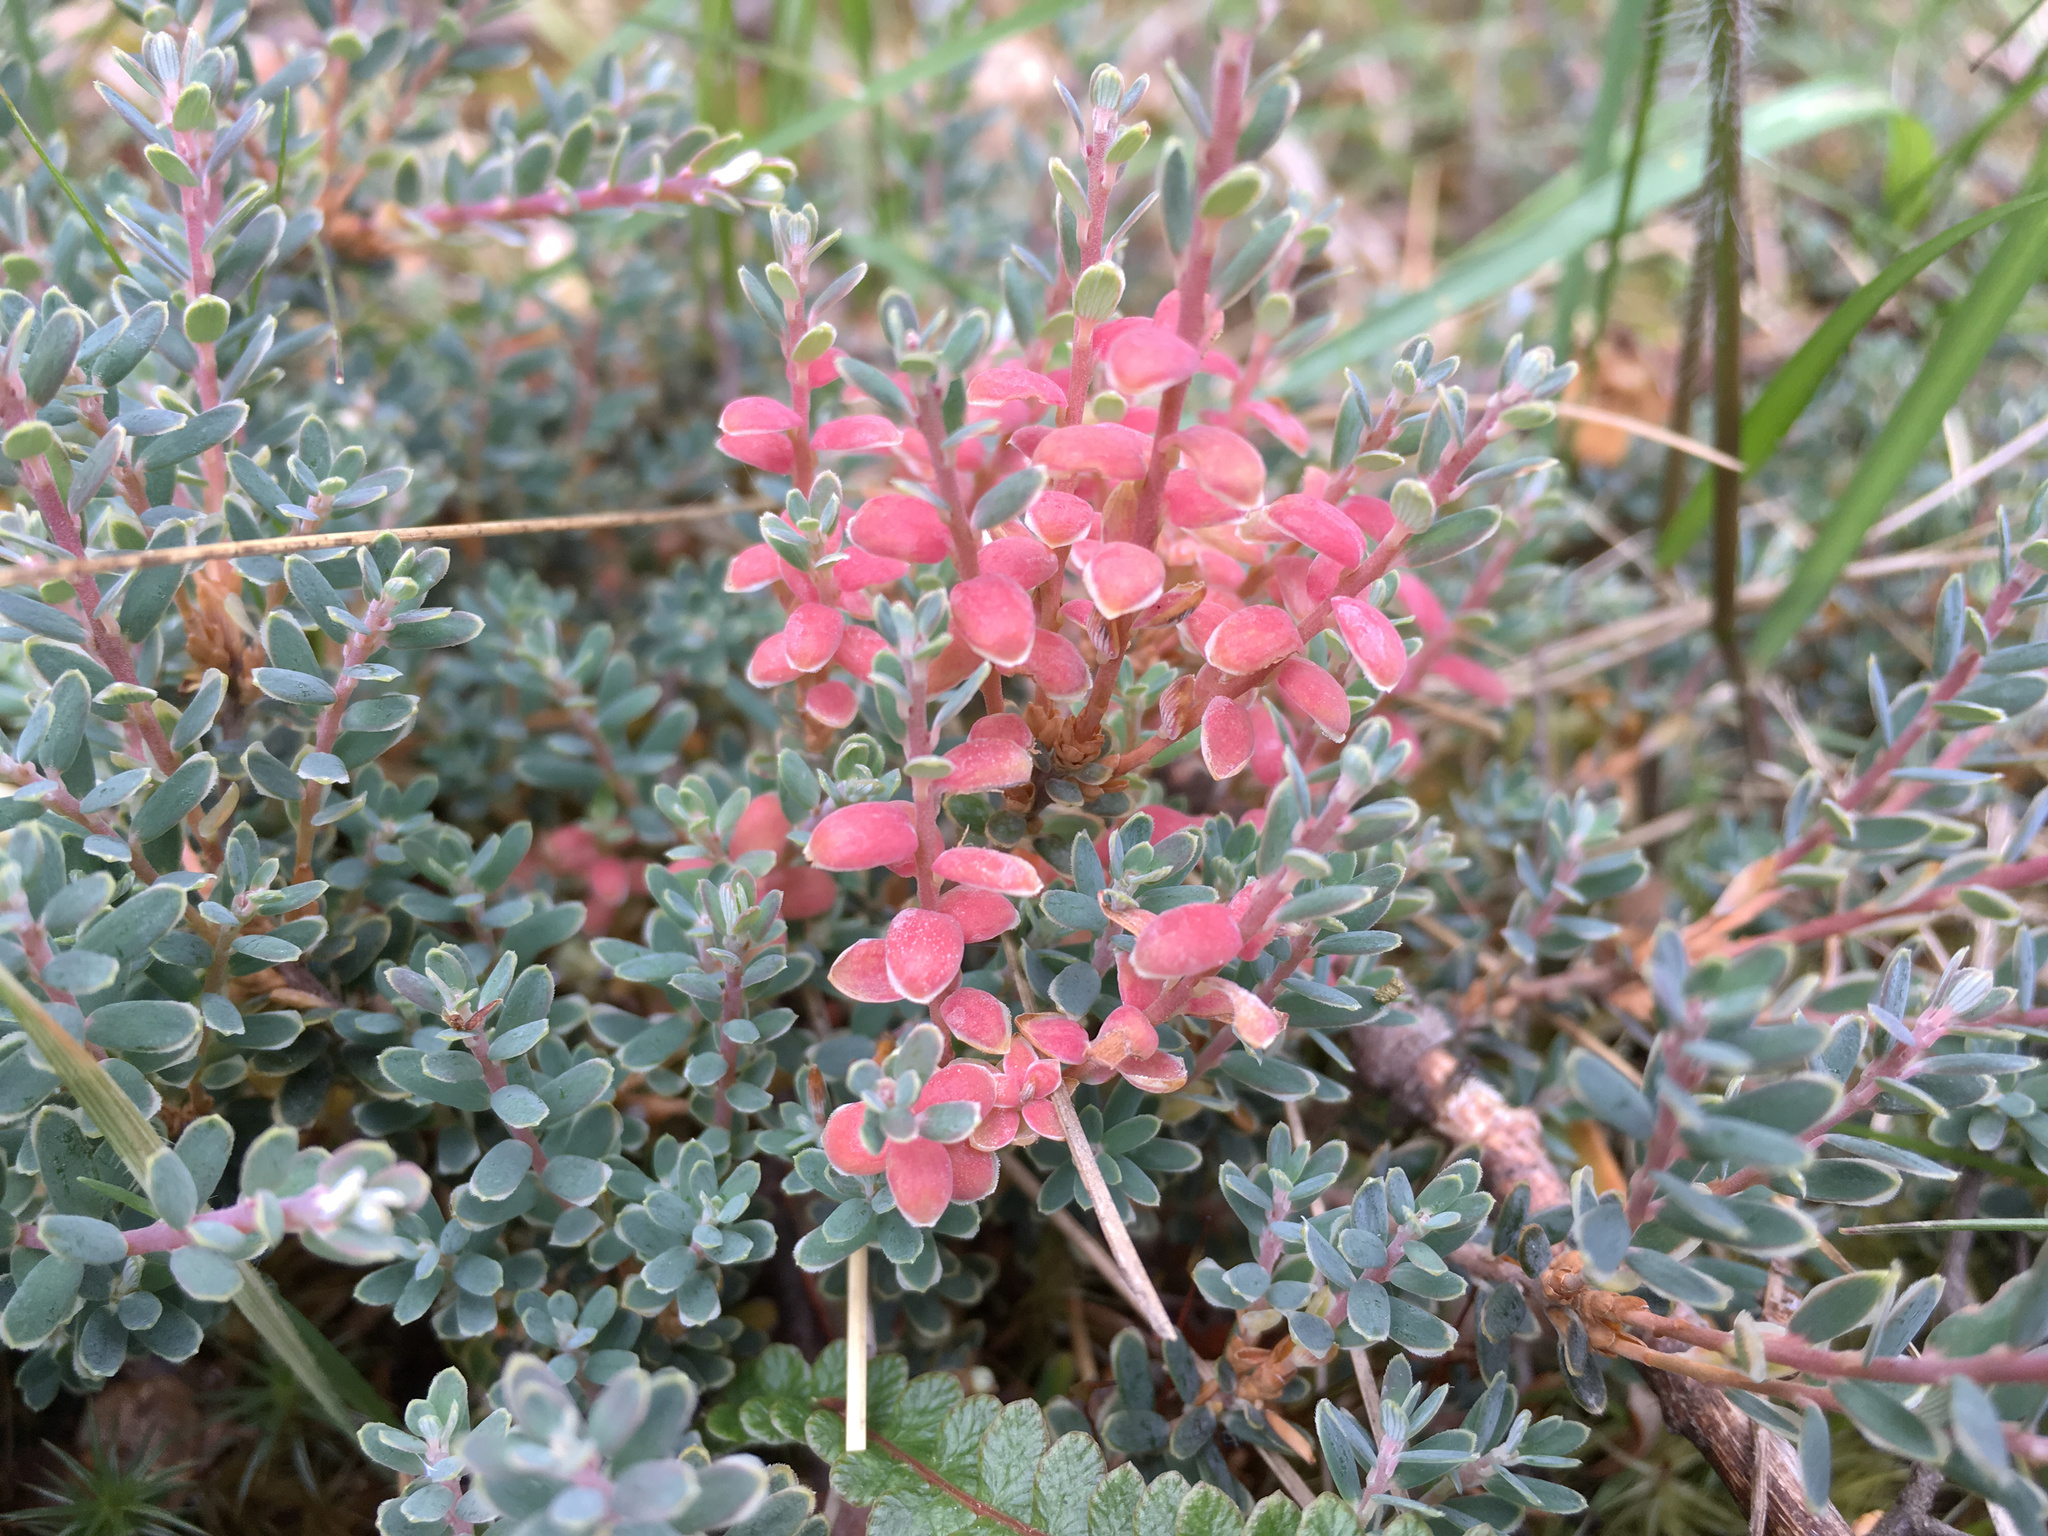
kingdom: Plantae
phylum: Tracheophyta
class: Magnoliopsida
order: Ericales
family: Ericaceae
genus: Acrothamnus
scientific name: Acrothamnus colensoi
